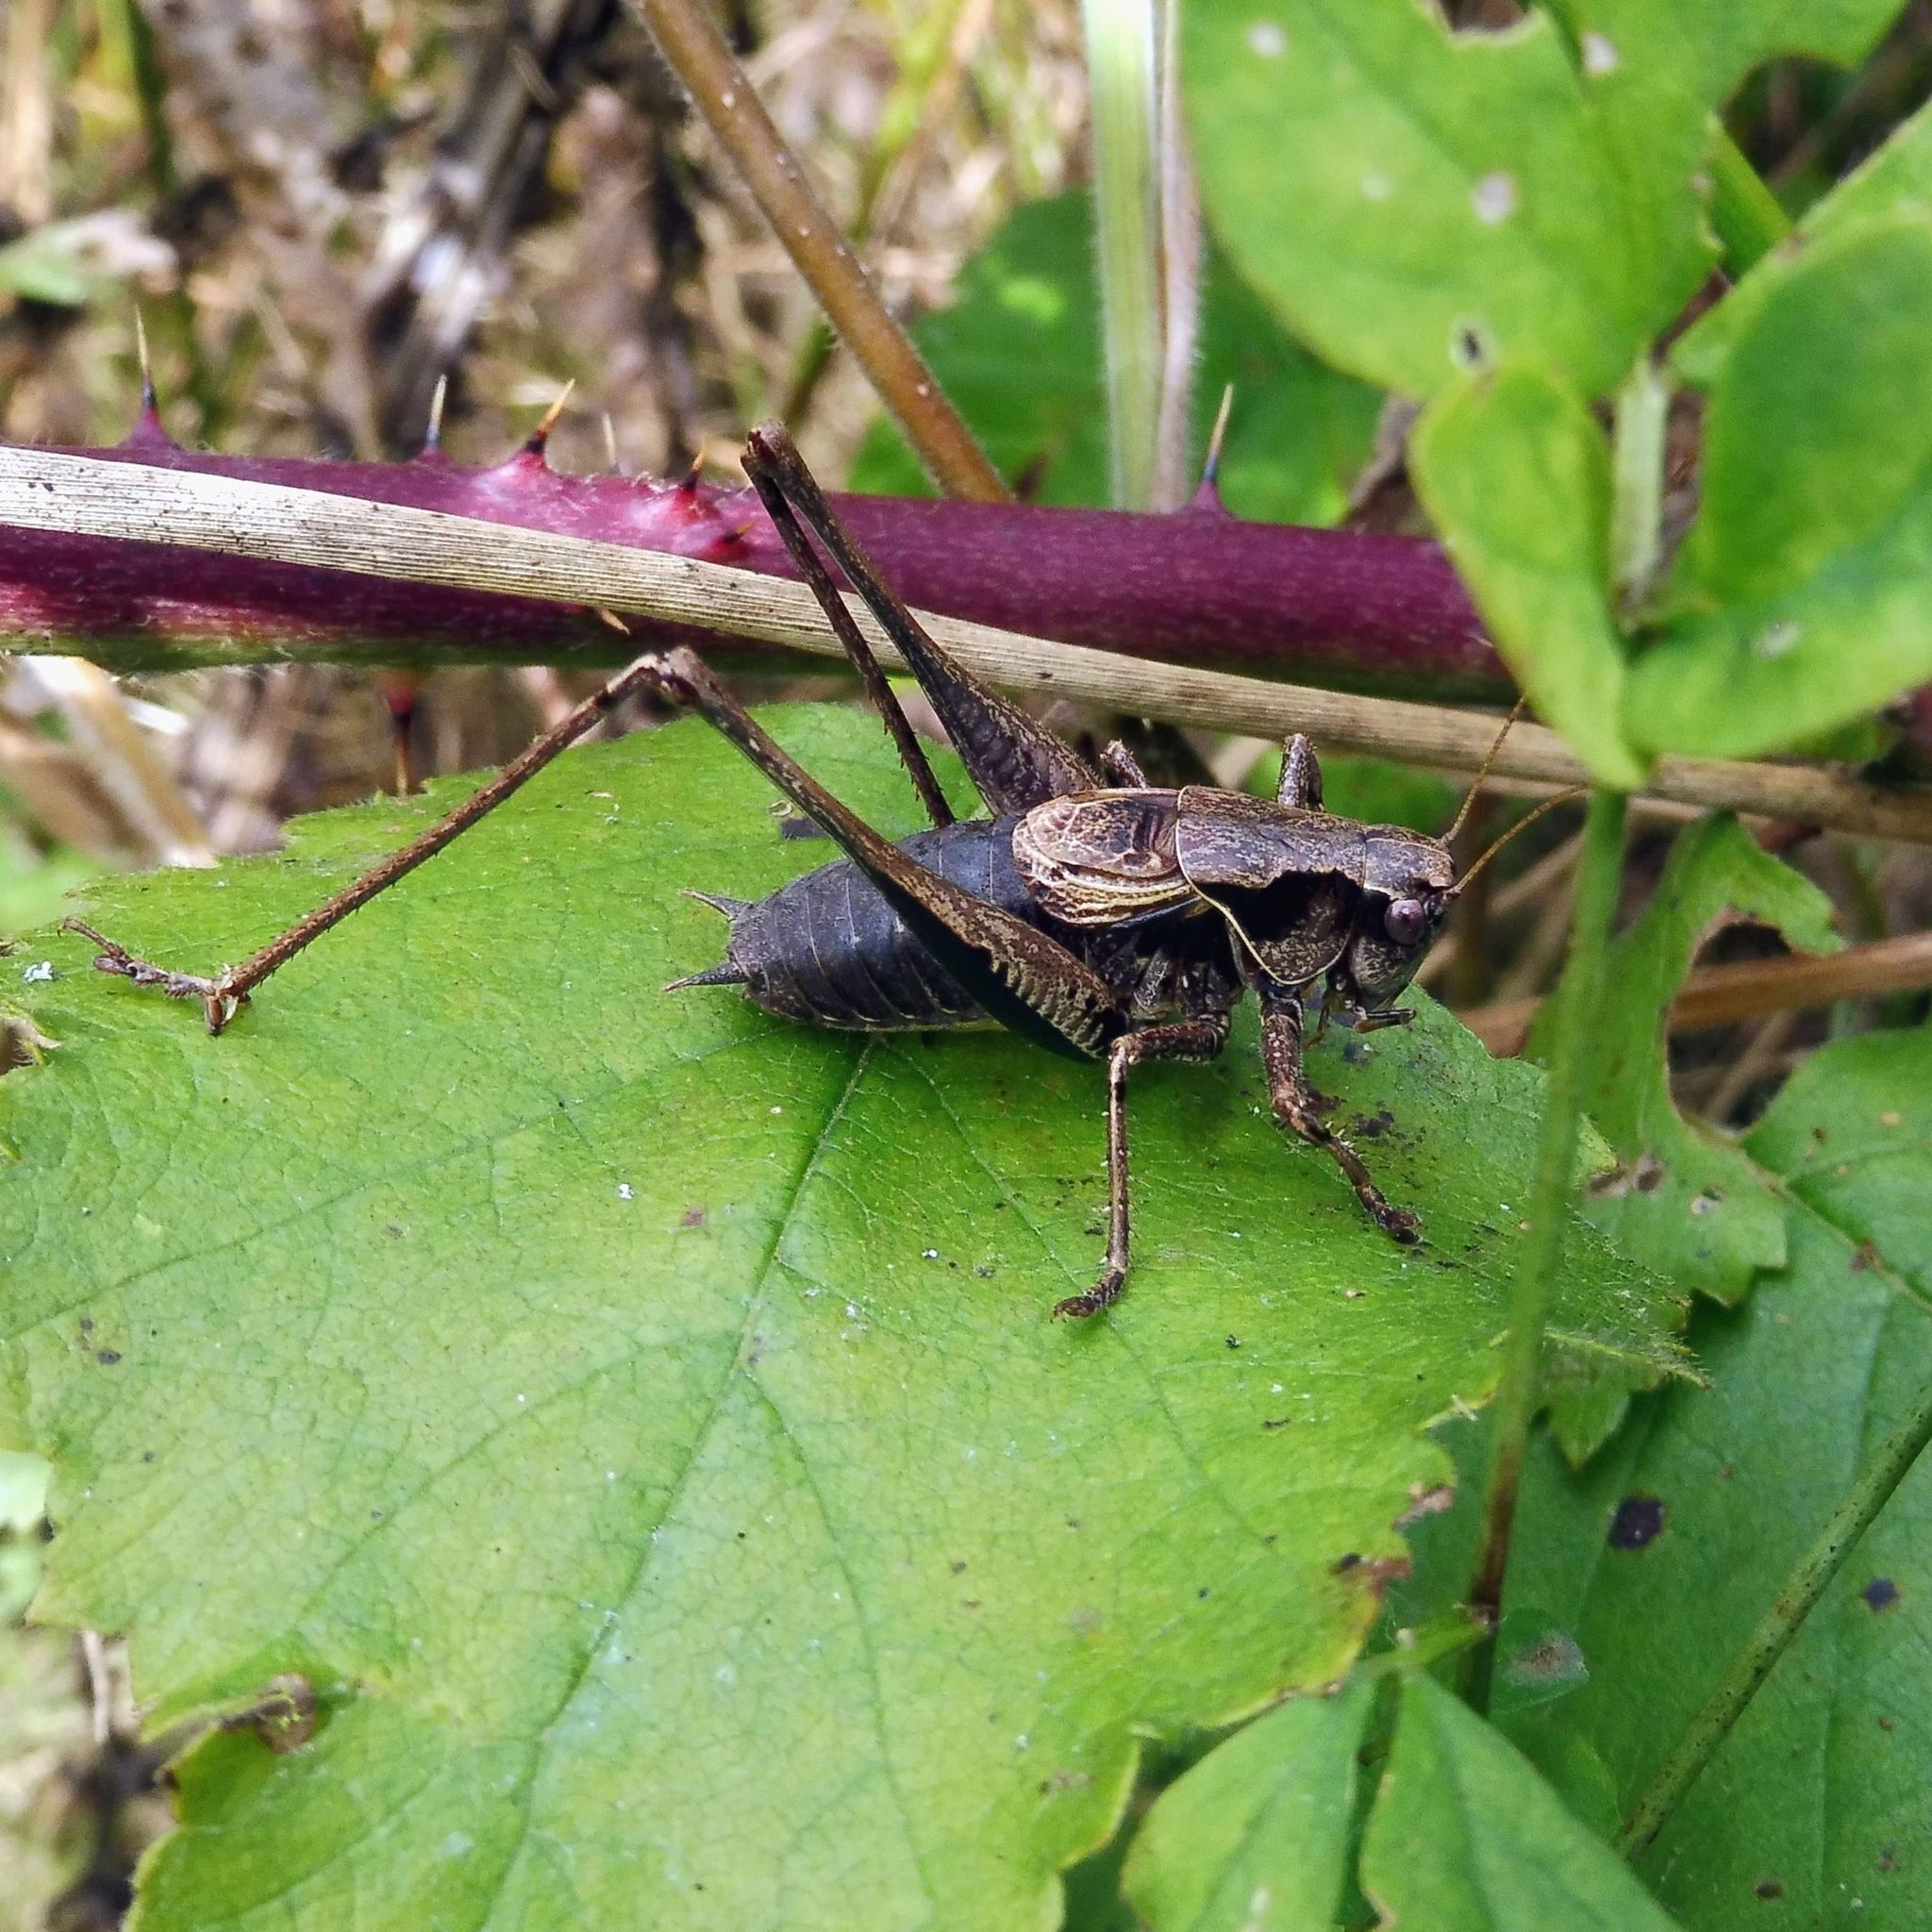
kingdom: Animalia
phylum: Arthropoda
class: Insecta
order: Orthoptera
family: Tettigoniidae
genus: Pholidoptera
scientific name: Pholidoptera griseoaptera
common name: Dark bush-cricket
